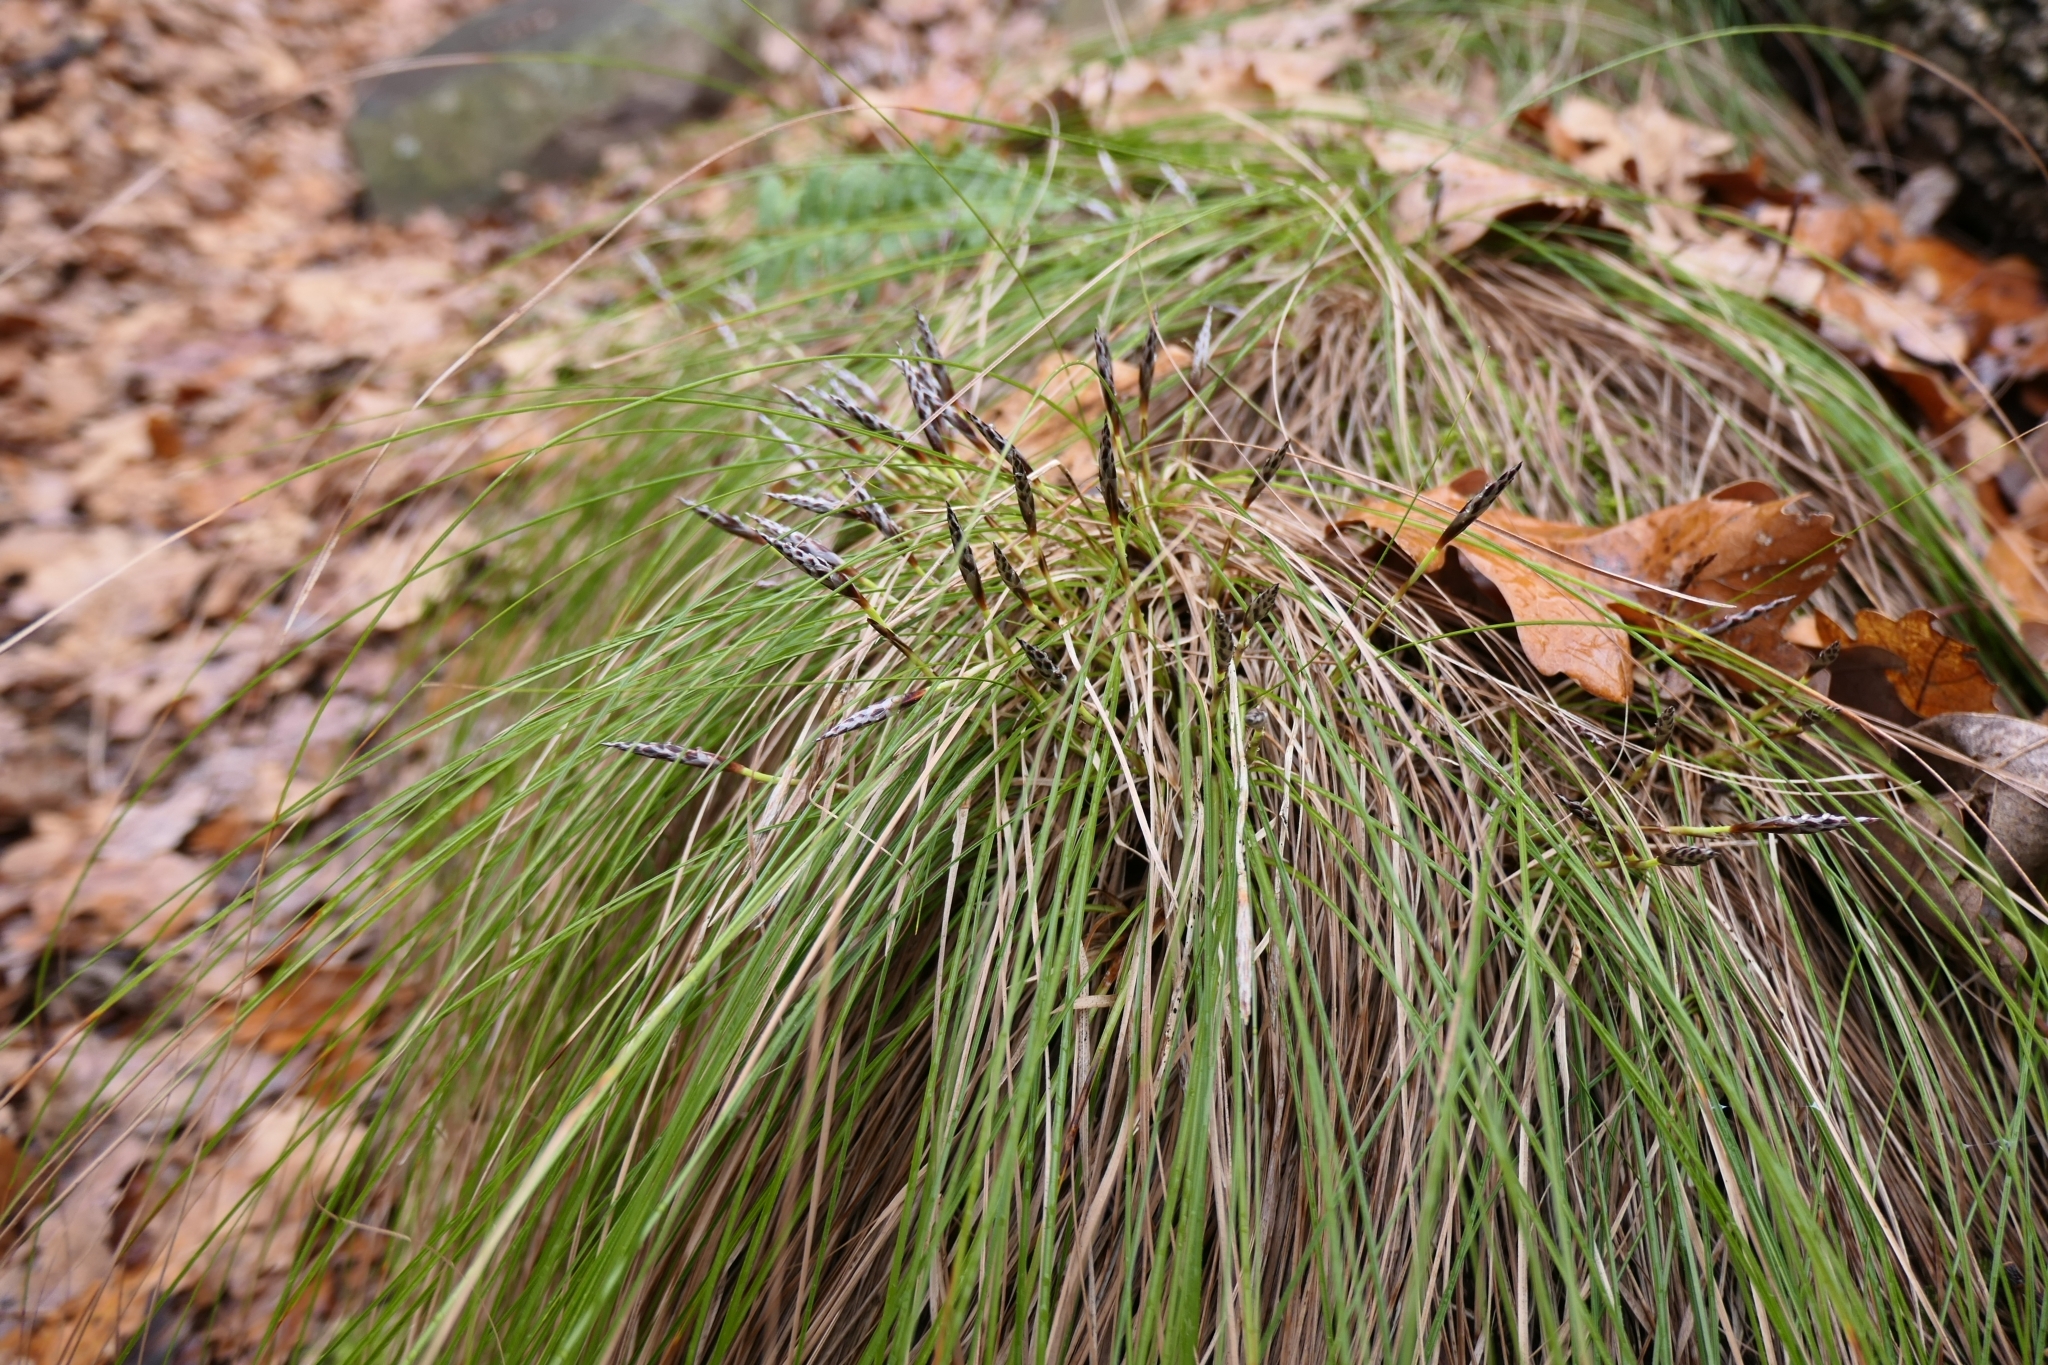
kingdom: Plantae
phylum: Tracheophyta
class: Liliopsida
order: Poales
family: Cyperaceae
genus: Carex
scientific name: Carex humilis
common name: Dwarf sedge
